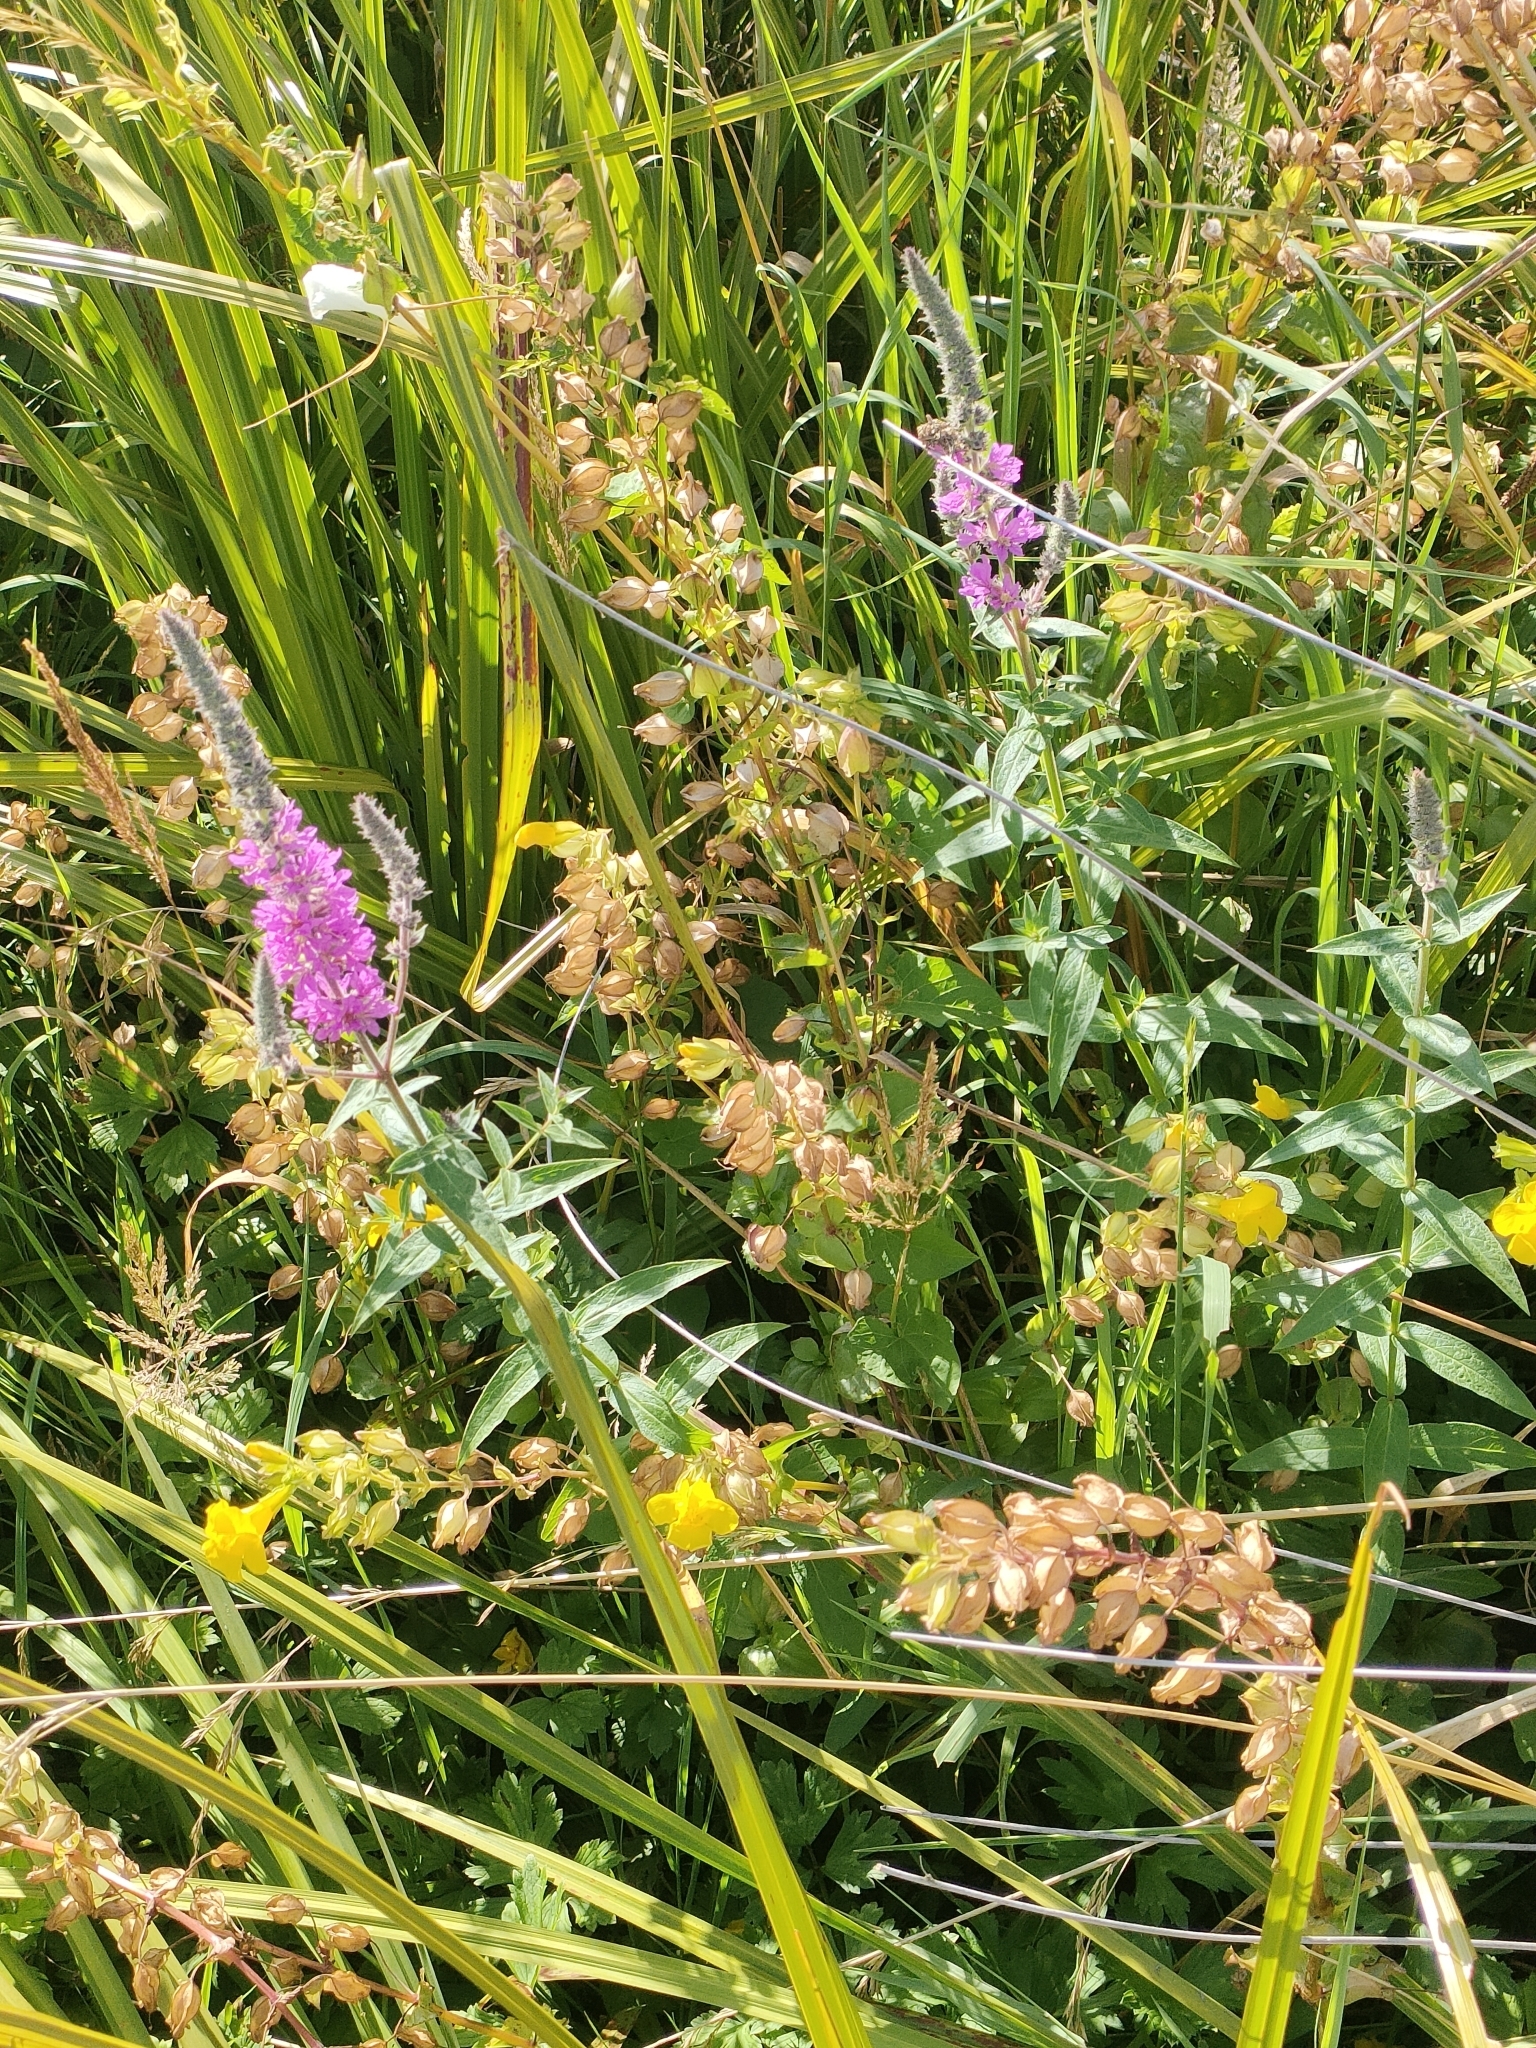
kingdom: Plantae
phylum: Tracheophyta
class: Magnoliopsida
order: Myrtales
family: Lythraceae
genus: Lythrum
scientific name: Lythrum salicaria
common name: Purple loosestrife
